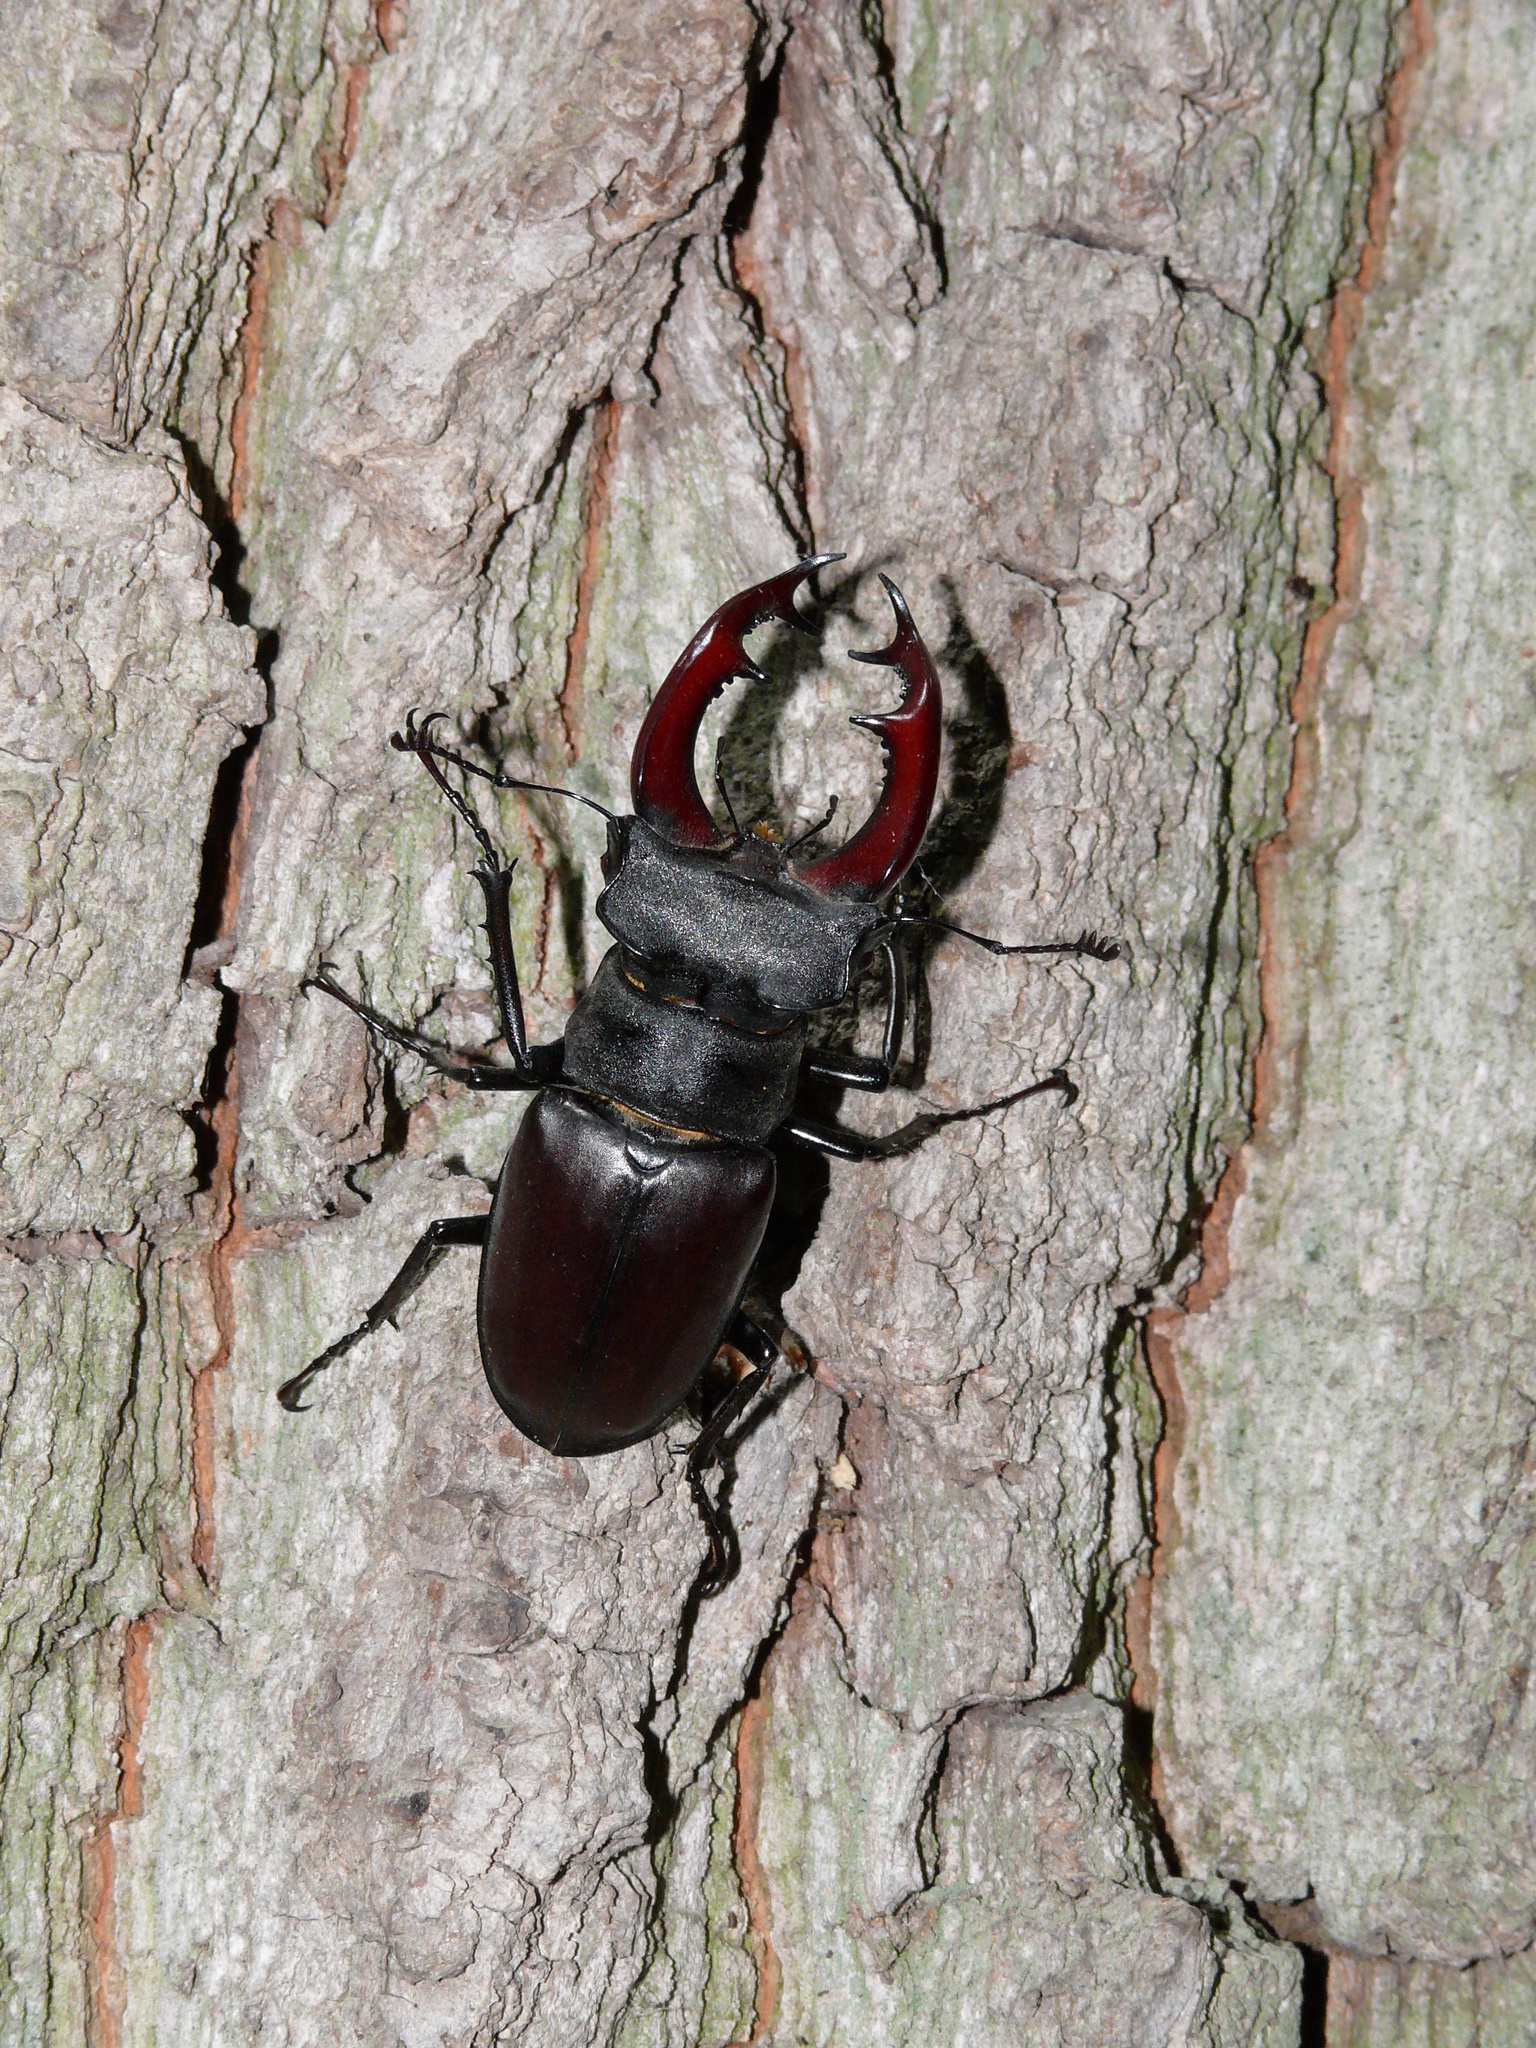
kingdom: Animalia
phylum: Arthropoda
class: Insecta
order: Coleoptera
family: Lucanidae
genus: Lucanus
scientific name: Lucanus cervus
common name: Stag beetle
